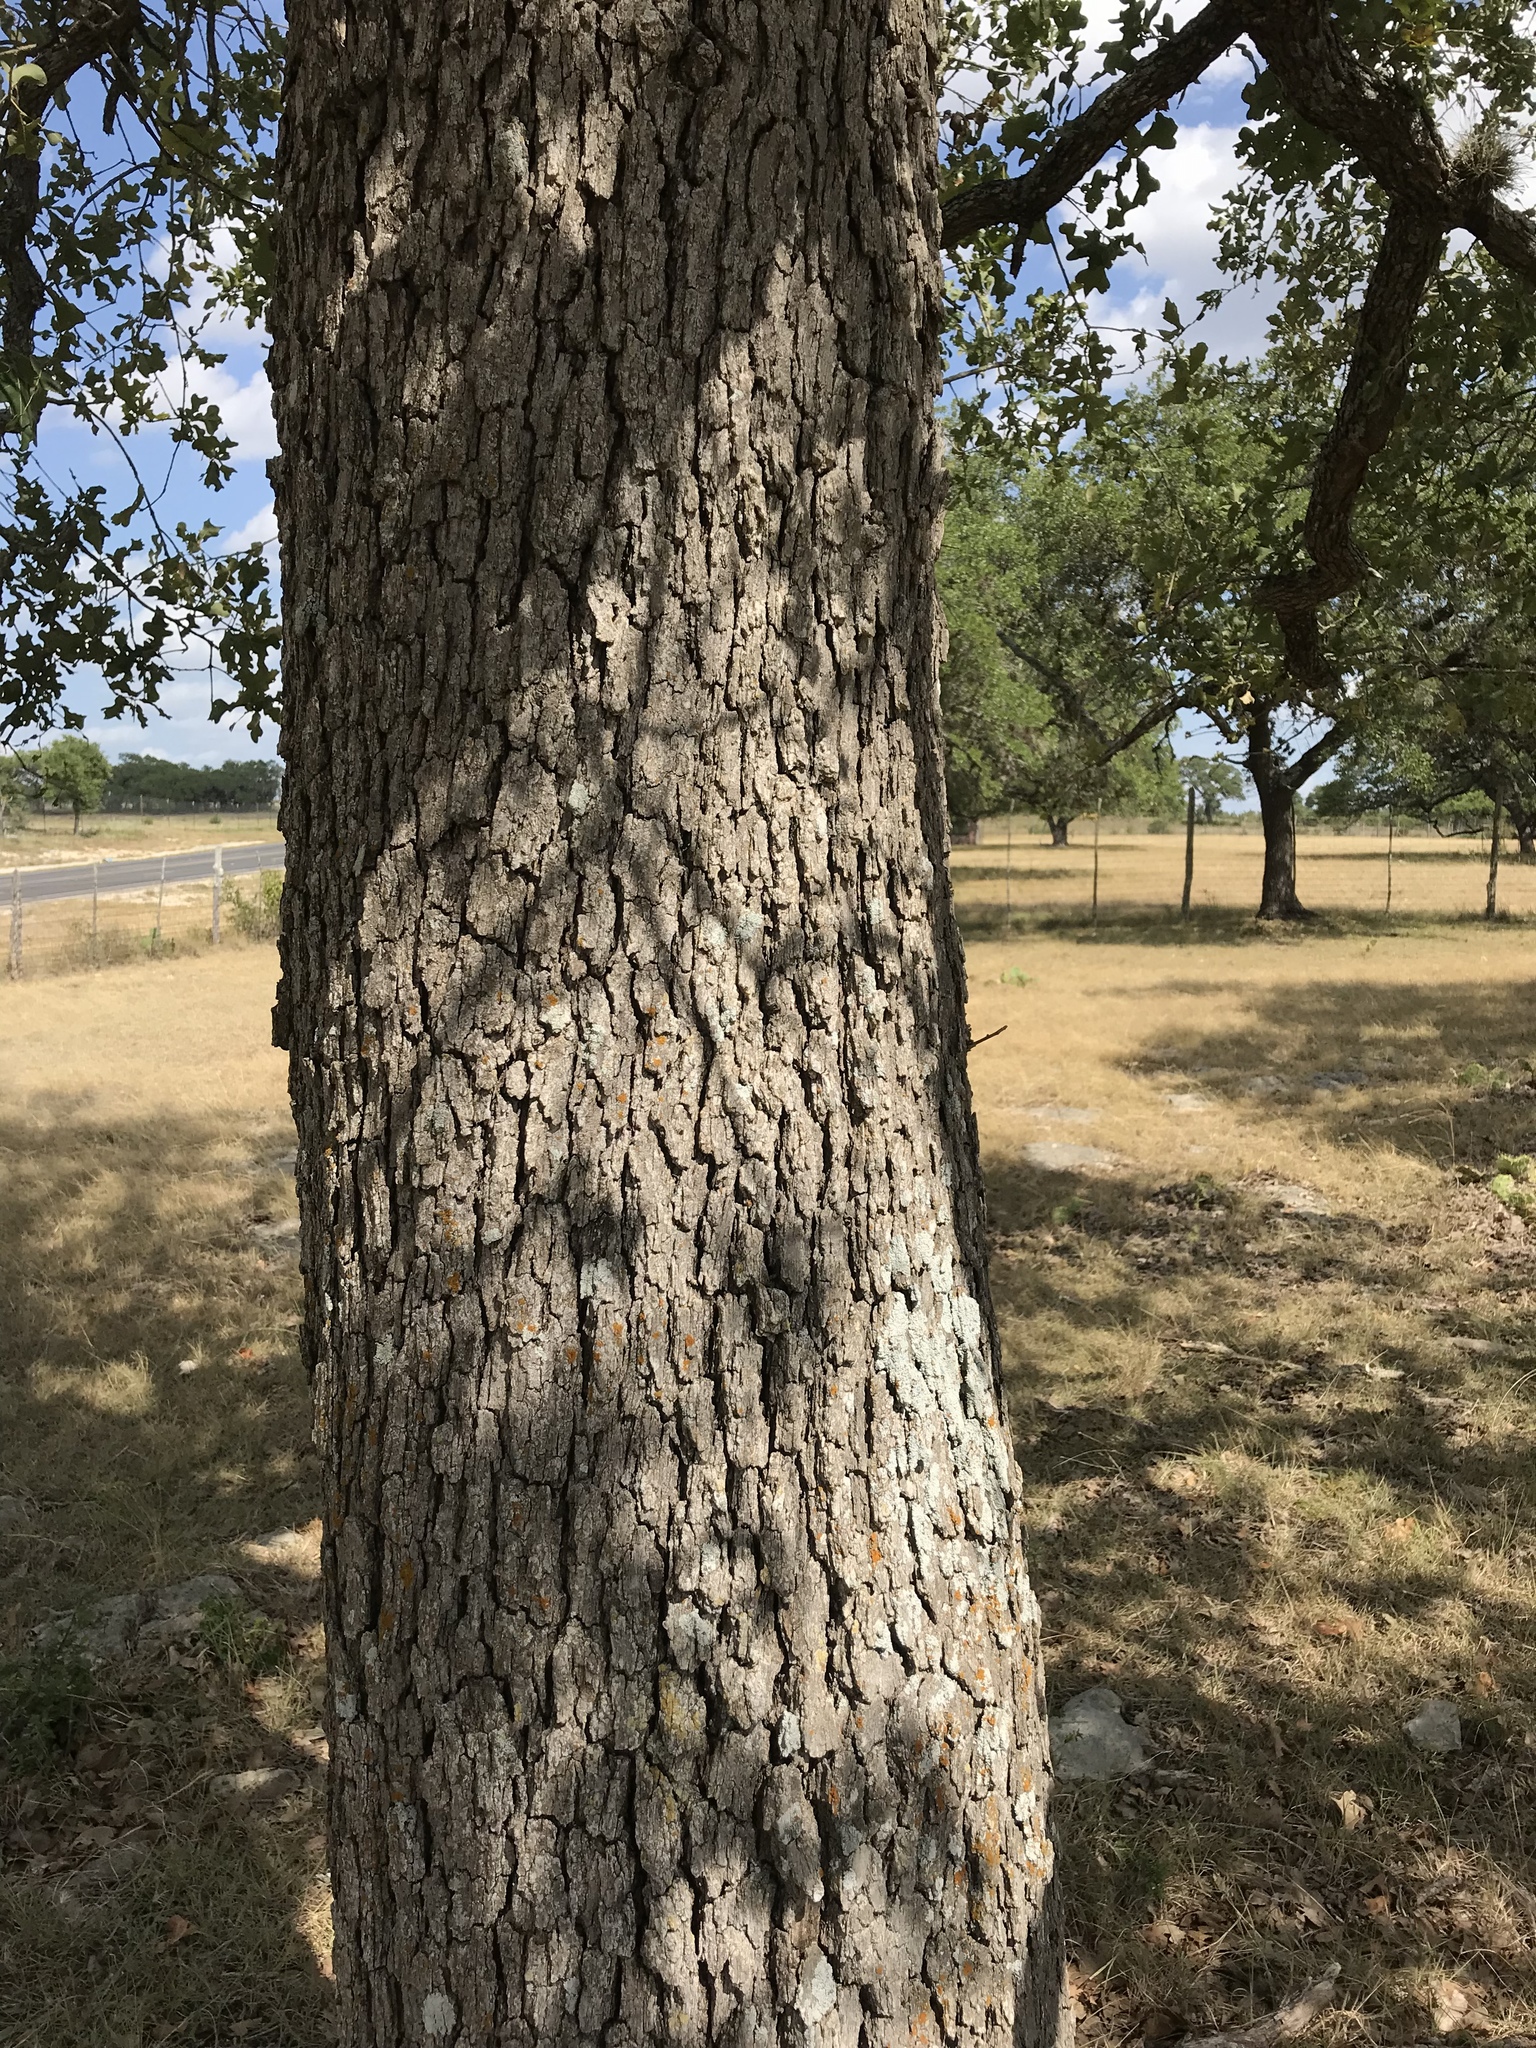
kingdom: Plantae
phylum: Tracheophyta
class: Magnoliopsida
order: Fagales
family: Fagaceae
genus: Quercus
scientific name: Quercus stellata
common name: Post oak
